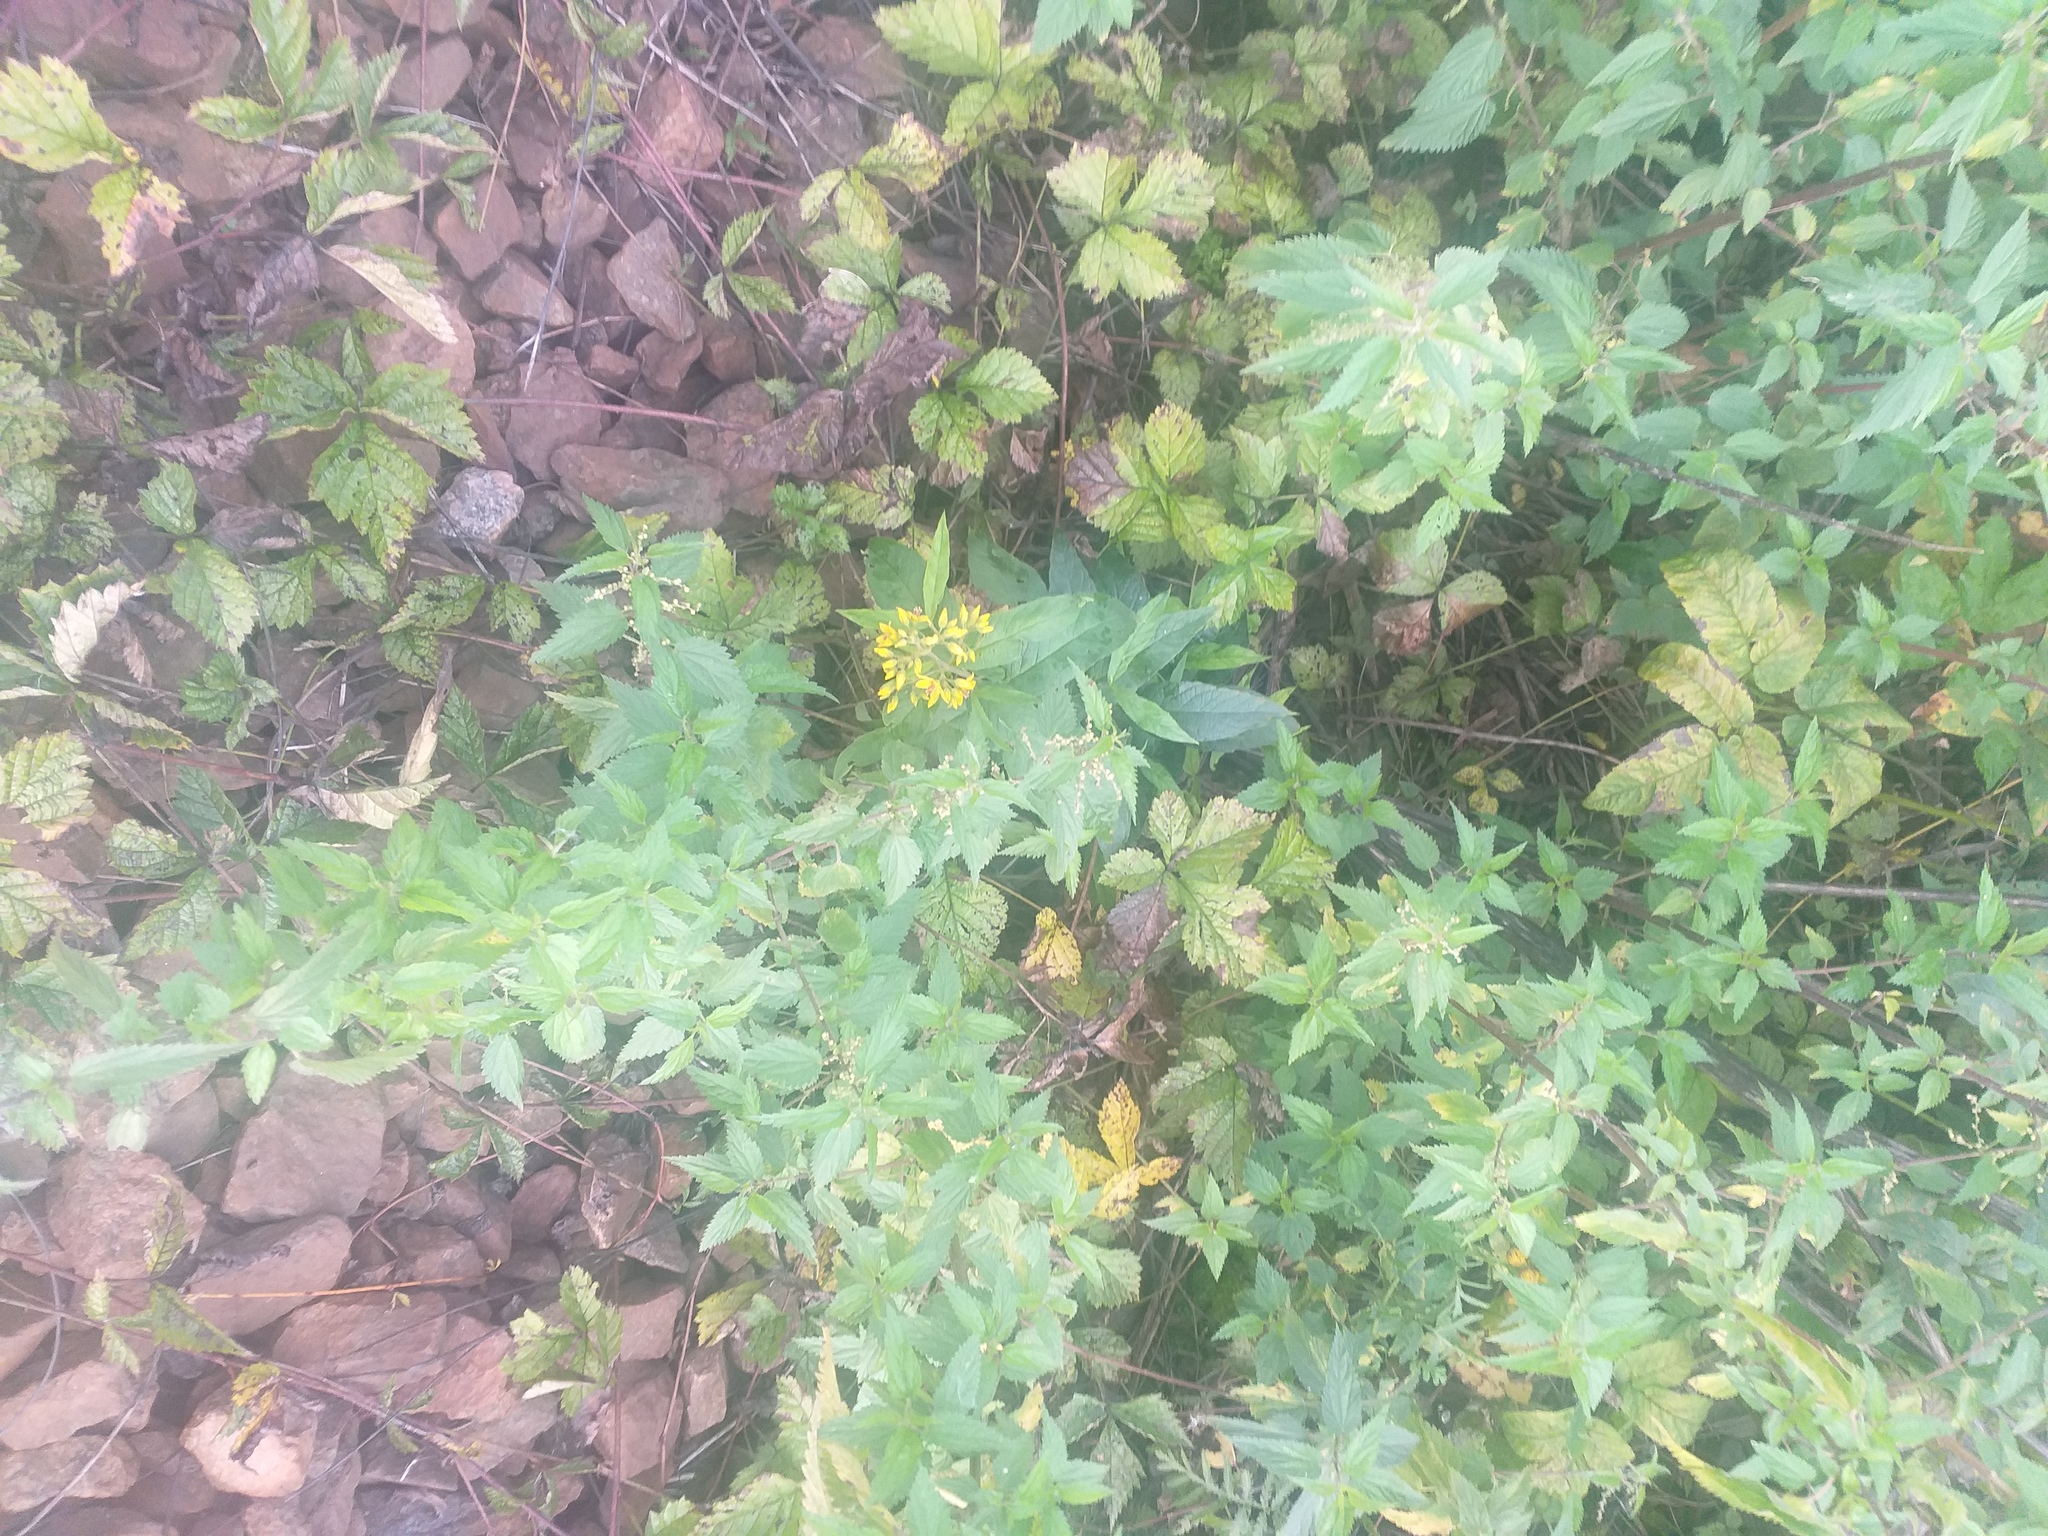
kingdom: Plantae
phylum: Tracheophyta
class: Magnoliopsida
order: Ericales
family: Primulaceae
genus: Lysimachia
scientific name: Lysimachia vulgaris
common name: Yellow loosestrife
